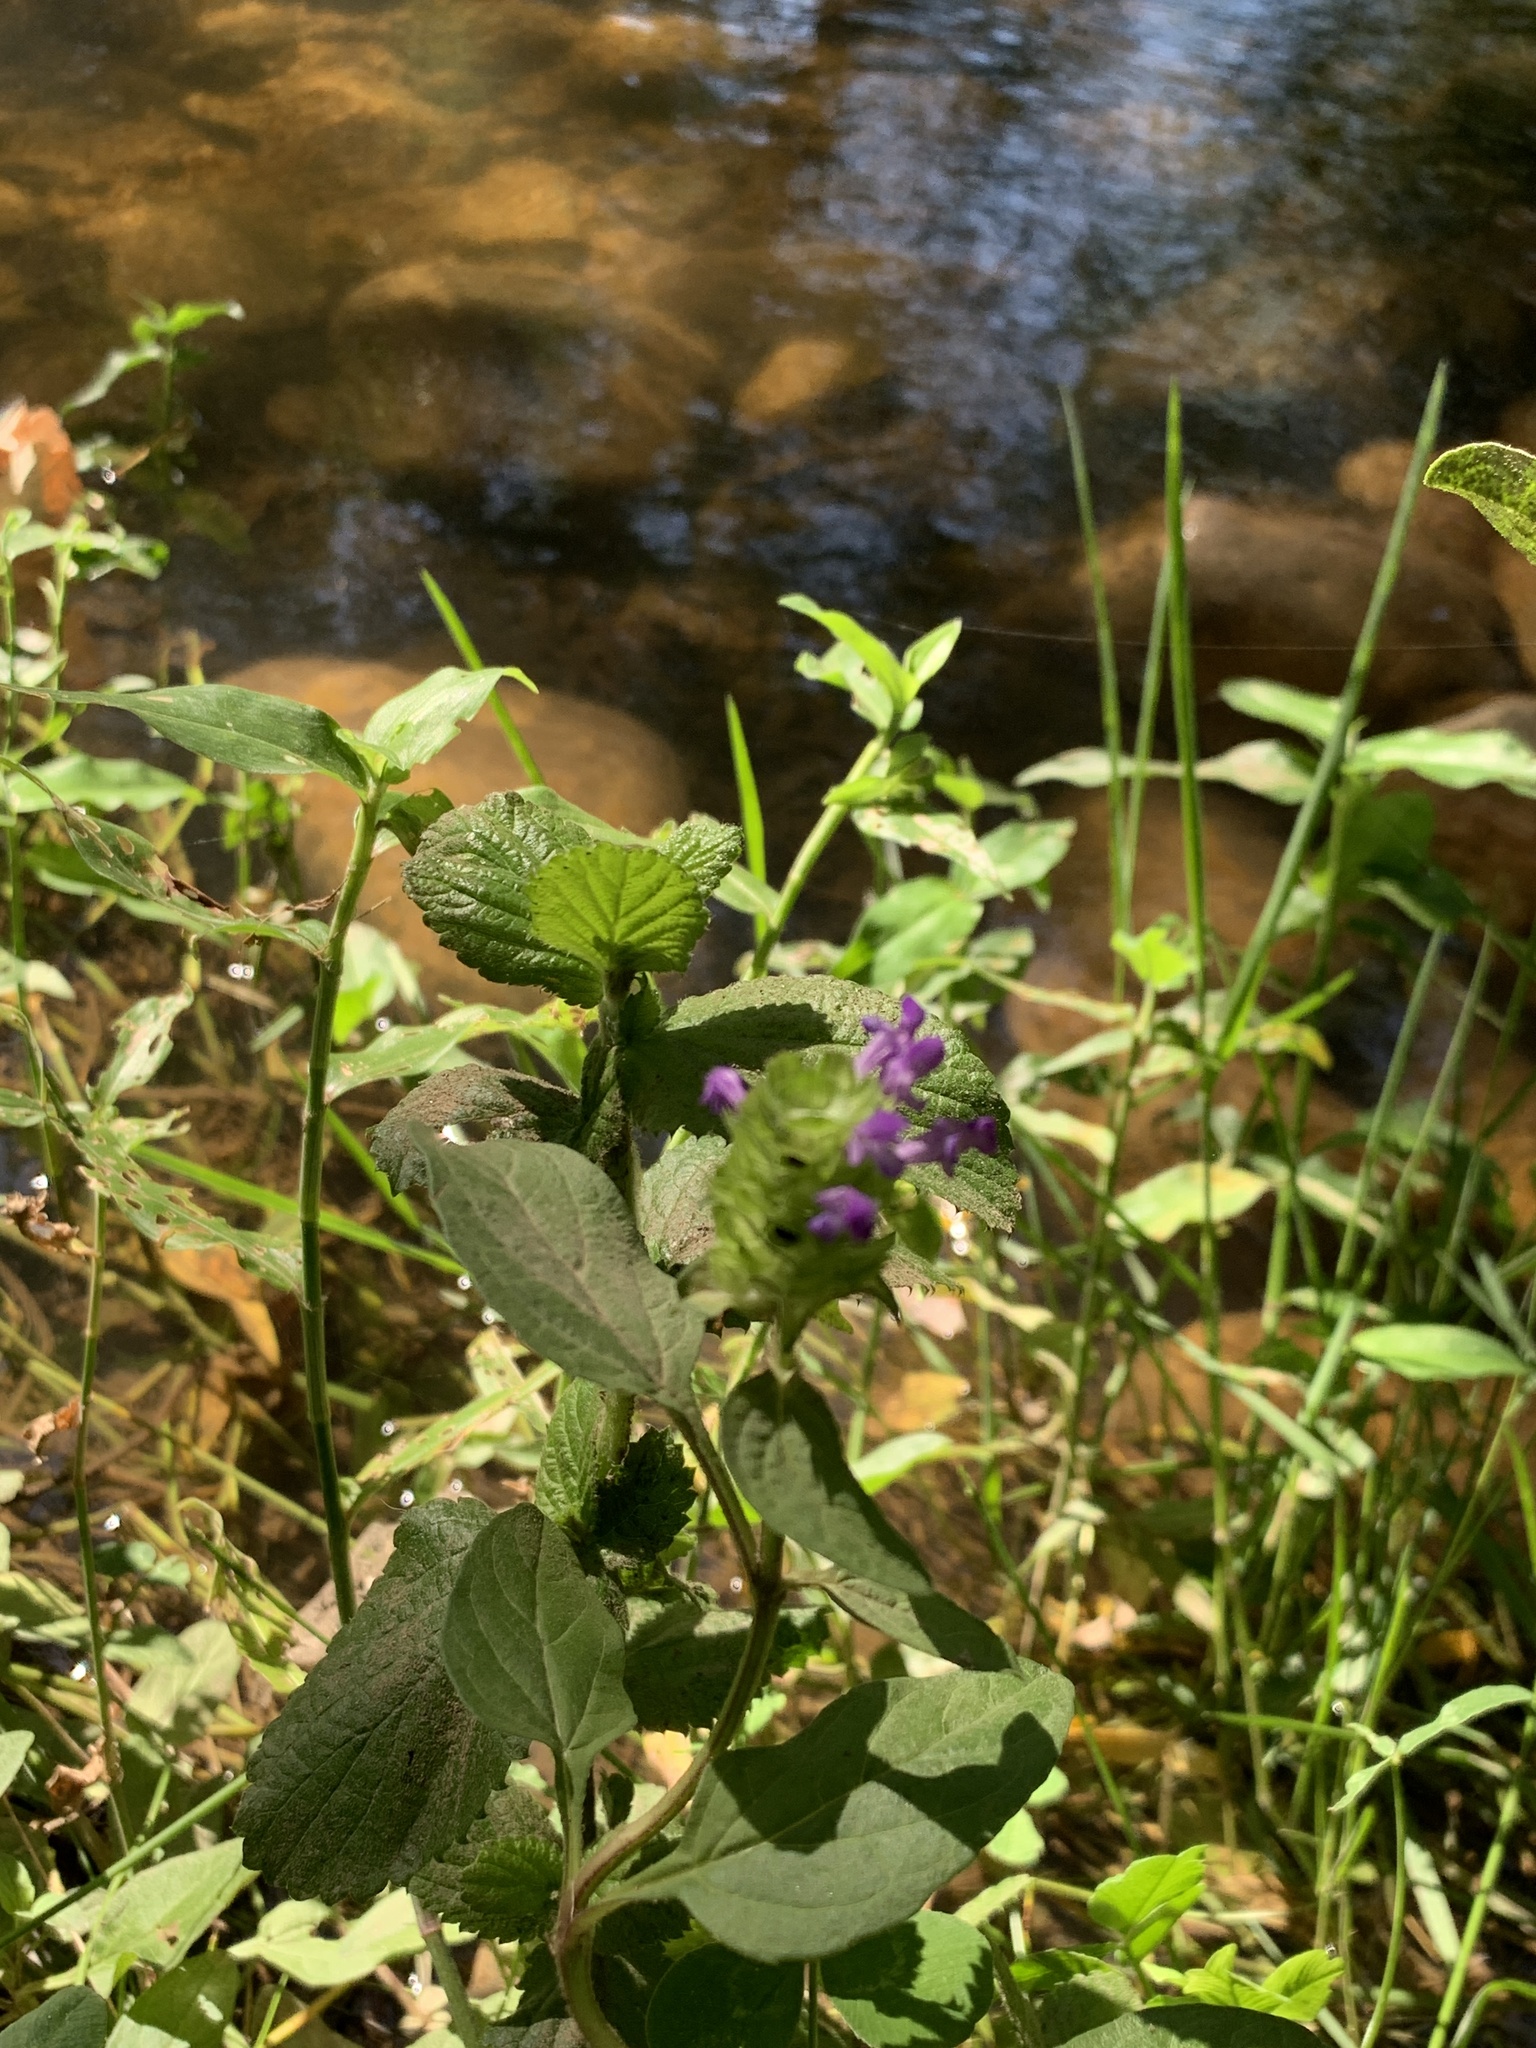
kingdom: Plantae
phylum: Tracheophyta
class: Magnoliopsida
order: Lamiales
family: Lamiaceae
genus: Prunella
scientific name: Prunella vulgaris
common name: Heal-all
